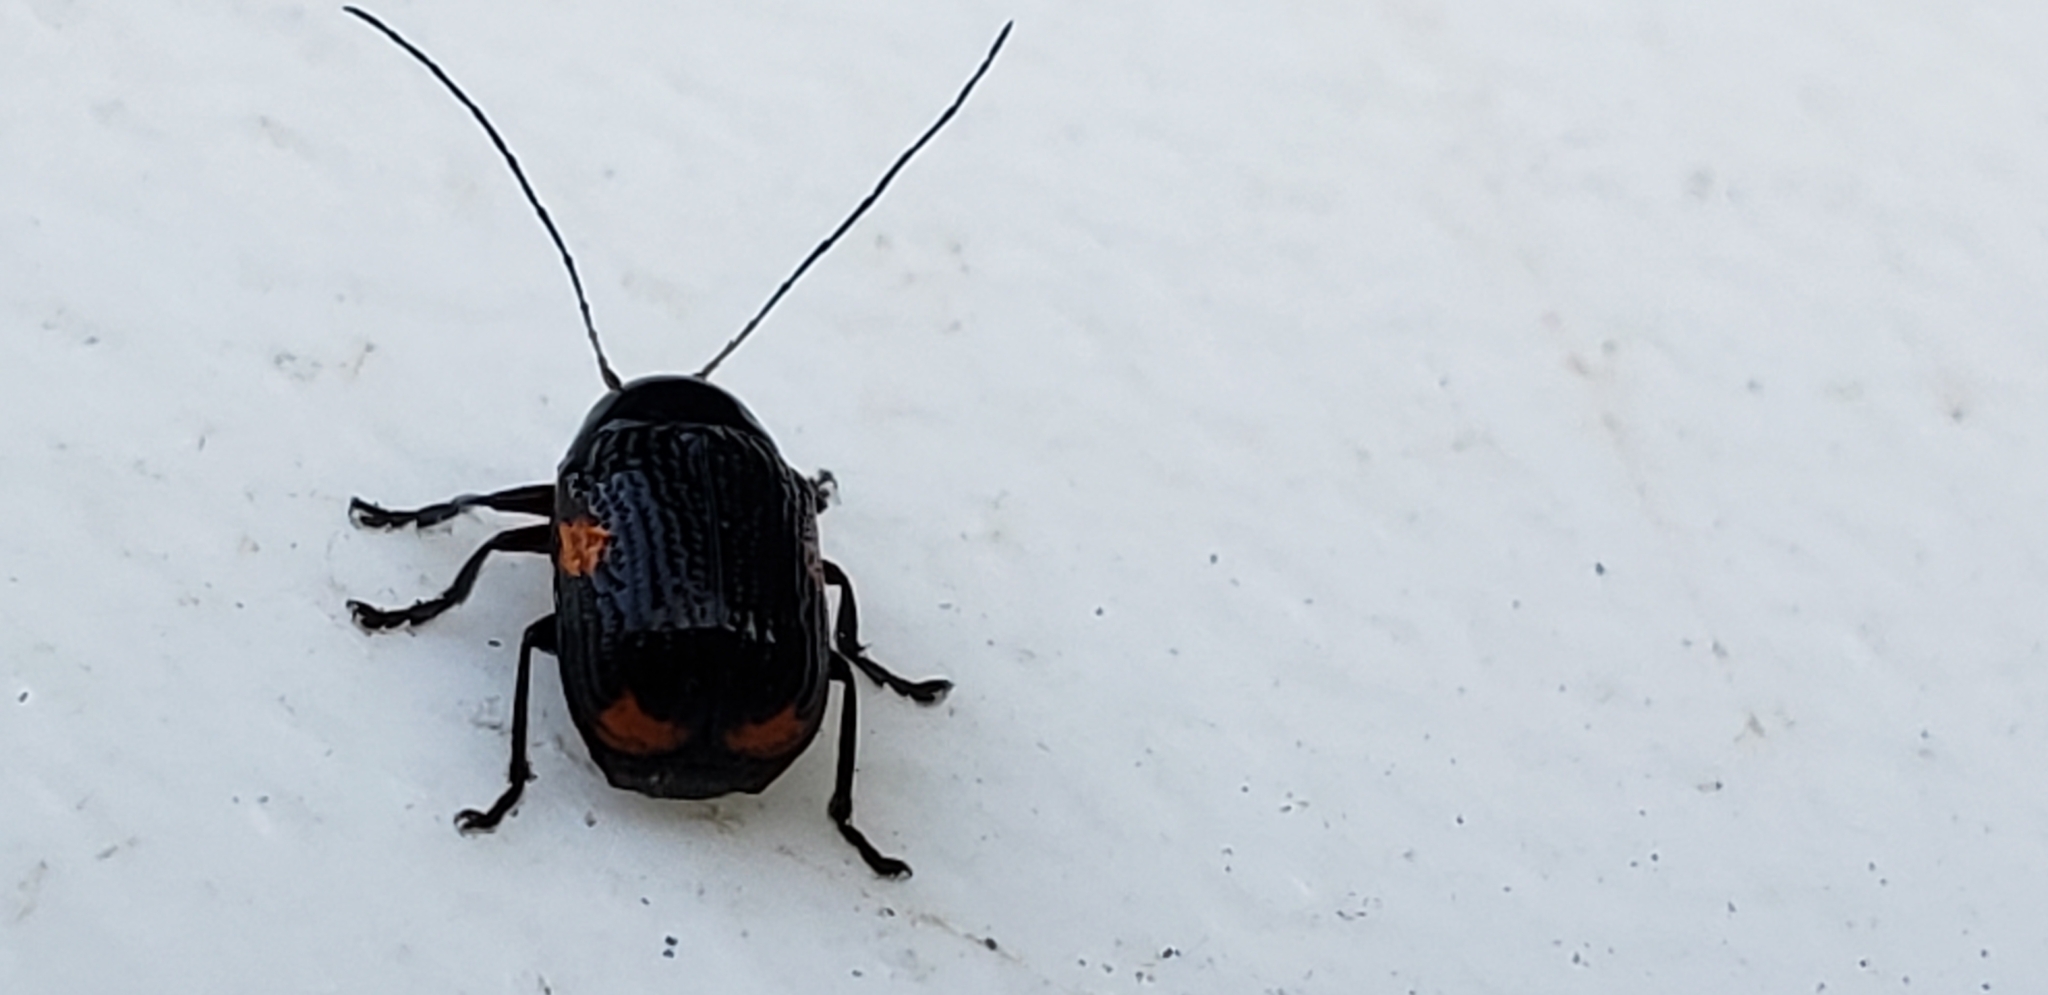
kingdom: Animalia
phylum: Arthropoda
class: Insecta
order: Coleoptera
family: Chrysomelidae
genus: Bassareus
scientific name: Bassareus mammifer
